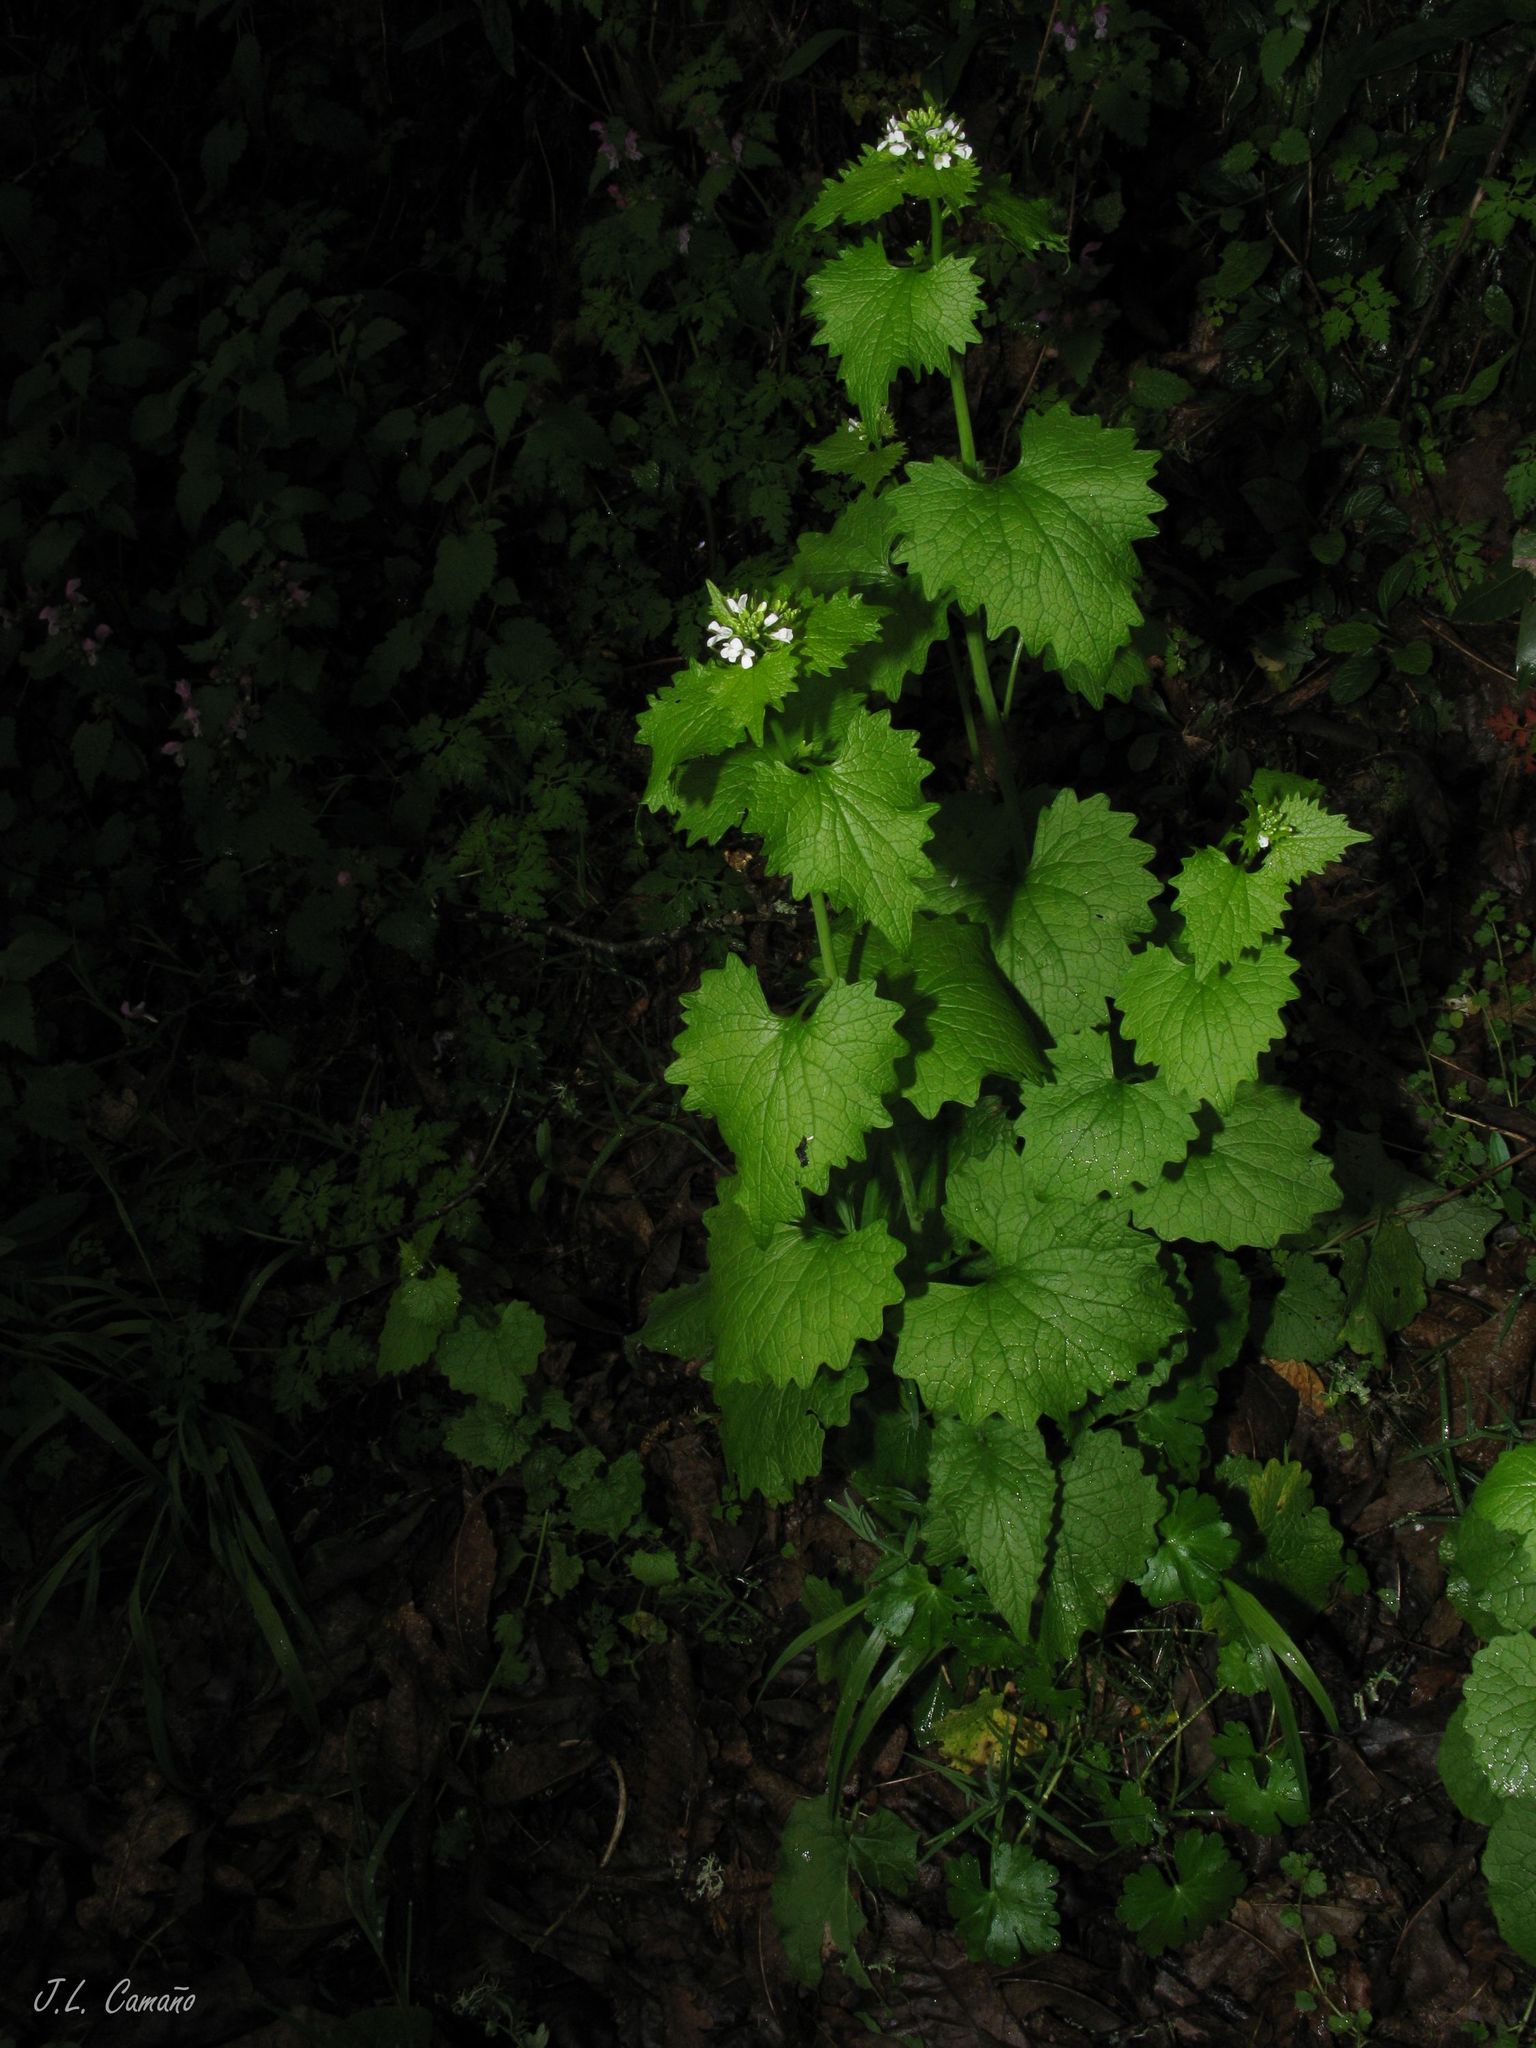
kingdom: Plantae
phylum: Tracheophyta
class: Magnoliopsida
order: Brassicales
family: Brassicaceae
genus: Alliaria
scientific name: Alliaria petiolata
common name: Garlic mustard
